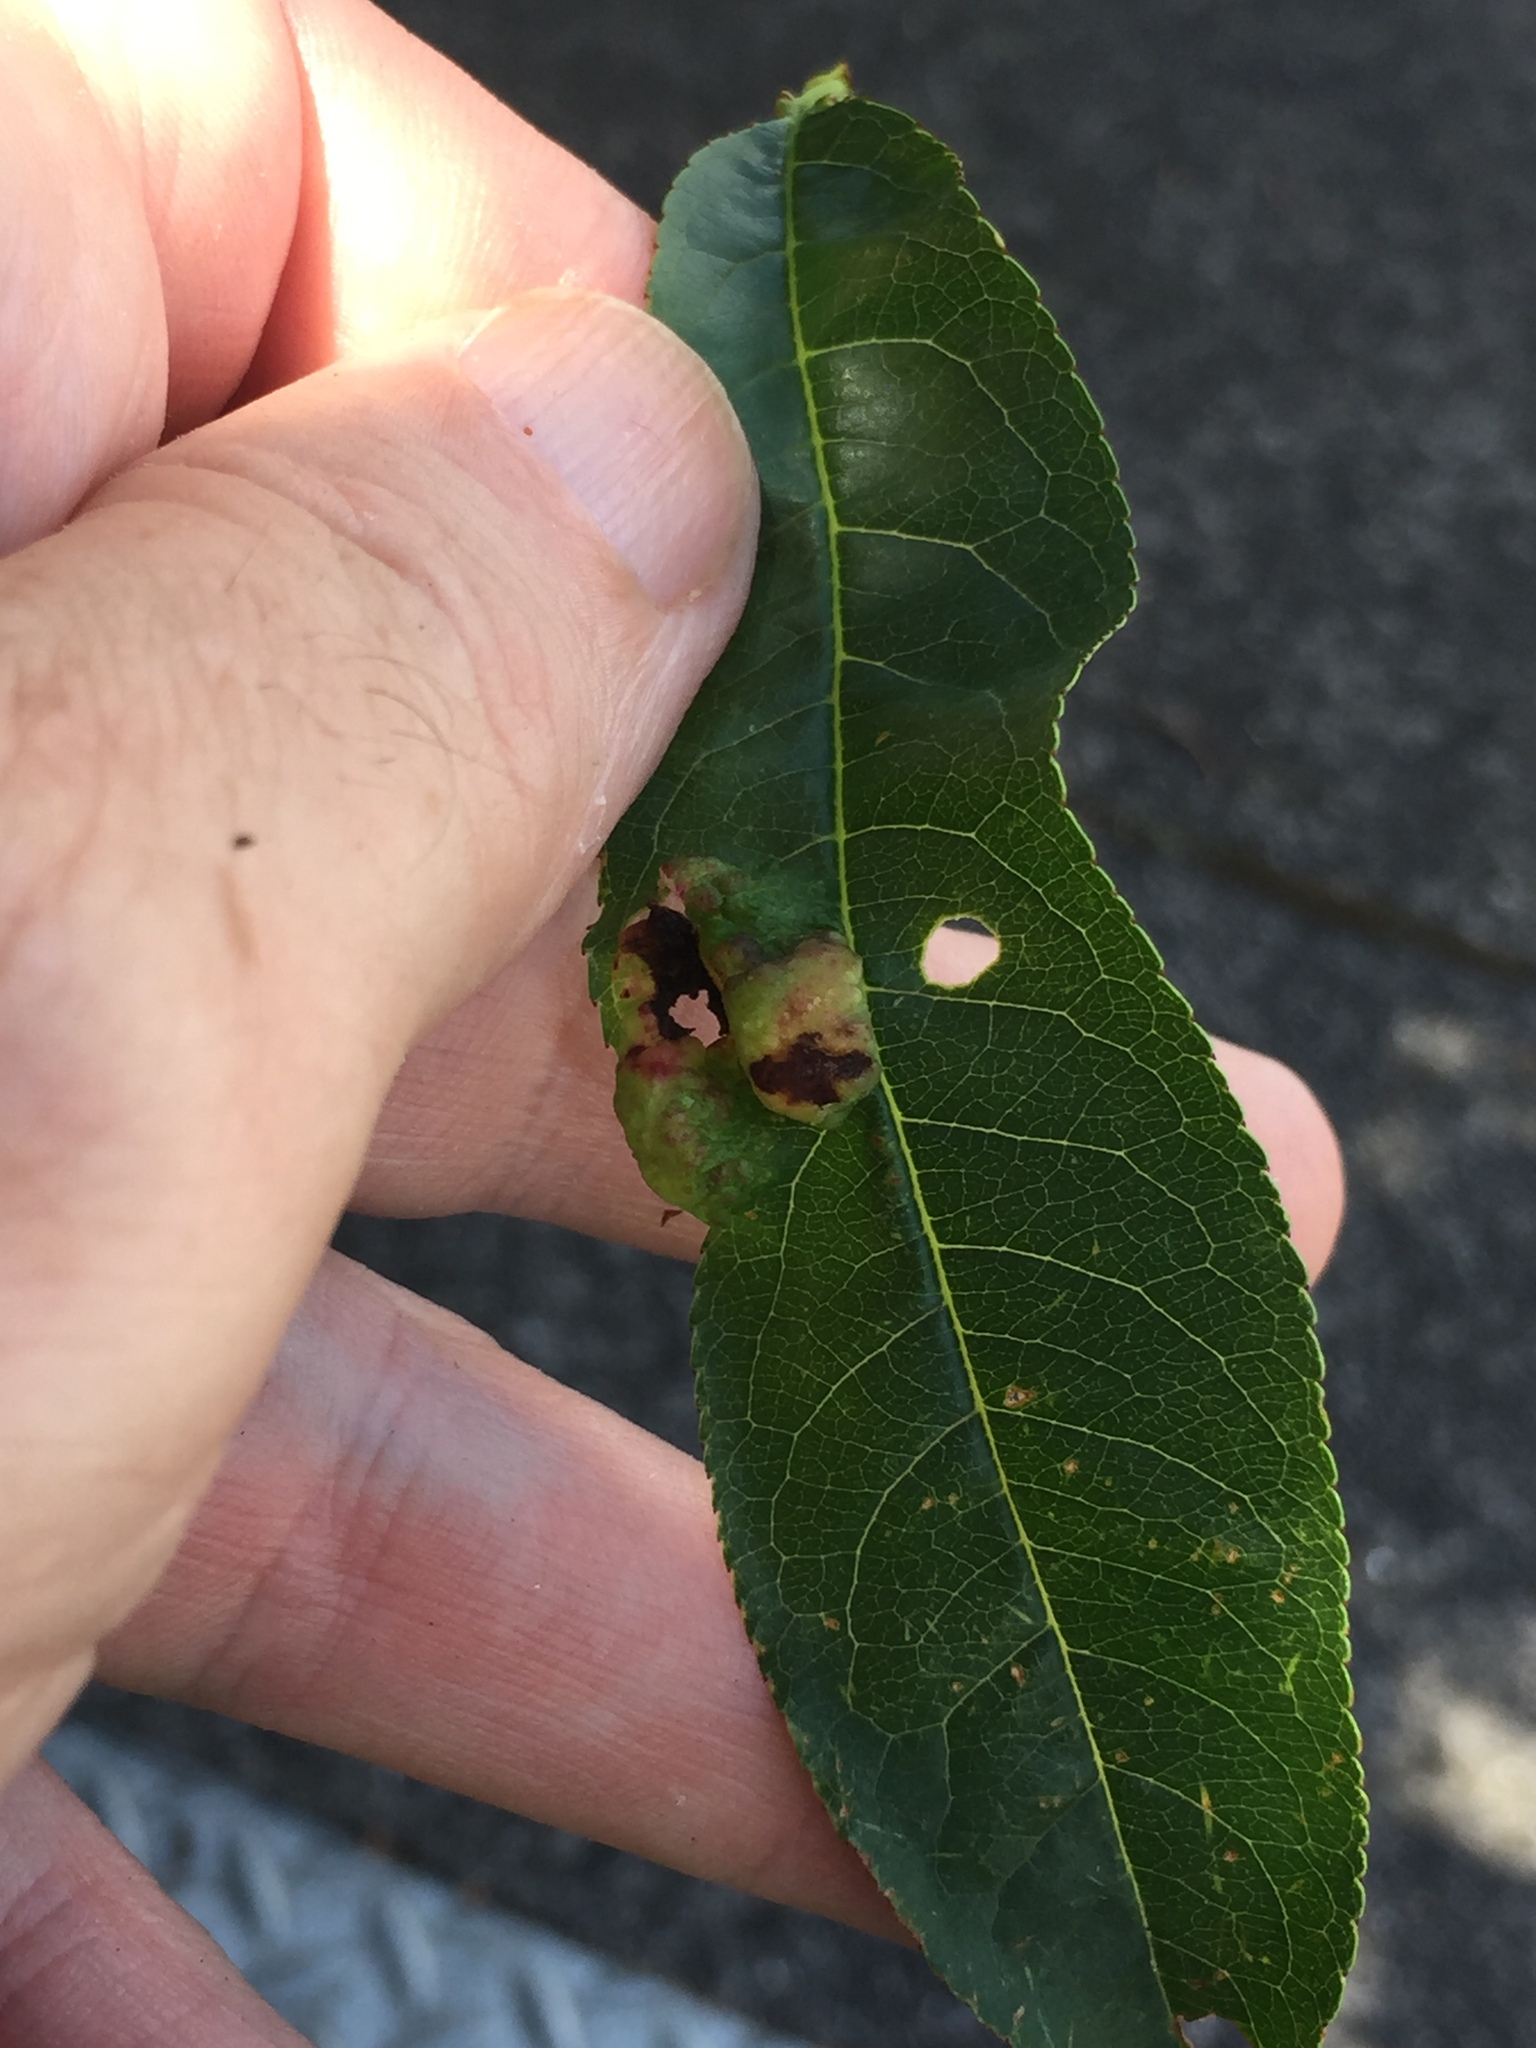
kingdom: Fungi
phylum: Ascomycota
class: Taphrinomycetes
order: Taphrinales
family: Taphrinaceae
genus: Taphrina
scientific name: Taphrina deformans
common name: Peach leaf curl
